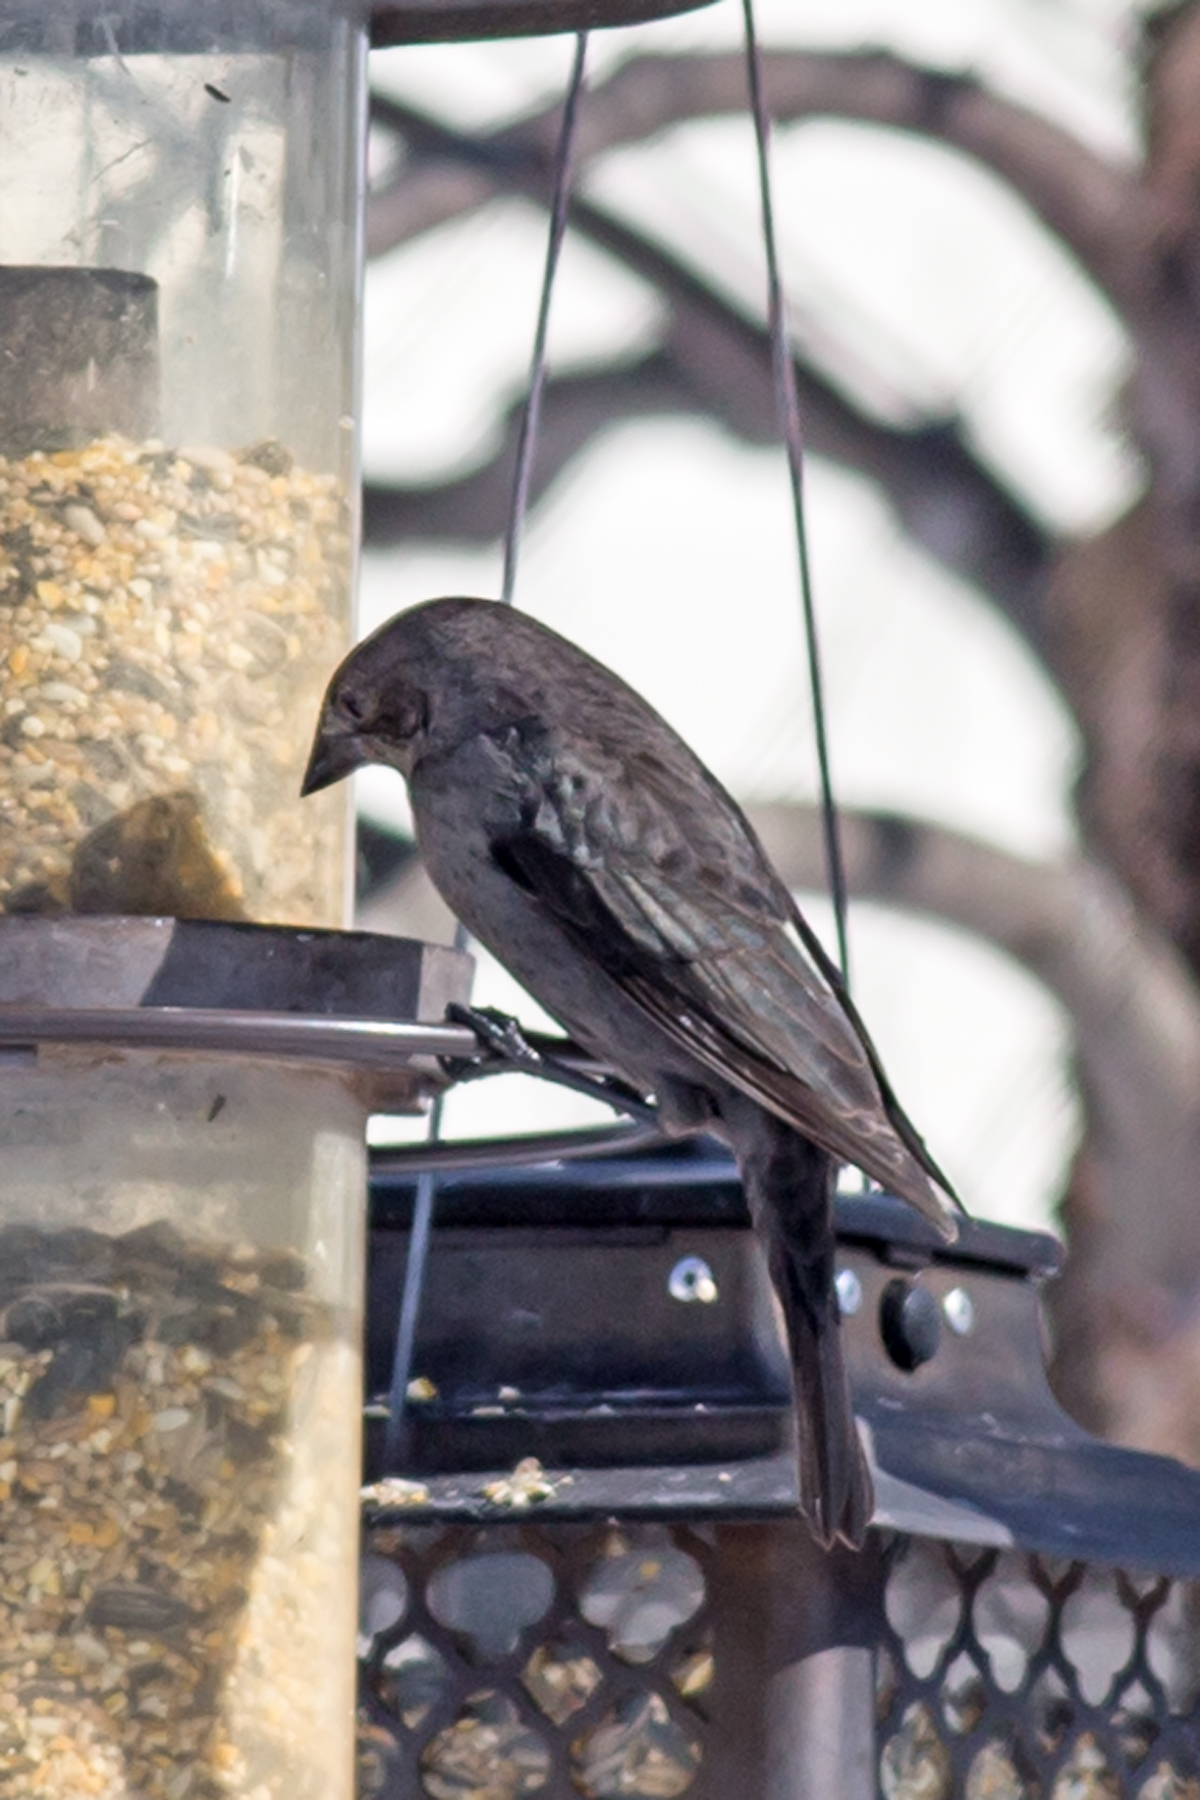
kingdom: Animalia
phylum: Chordata
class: Aves
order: Passeriformes
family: Icteridae
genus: Molothrus
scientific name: Molothrus ater
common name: Brown-headed cowbird
